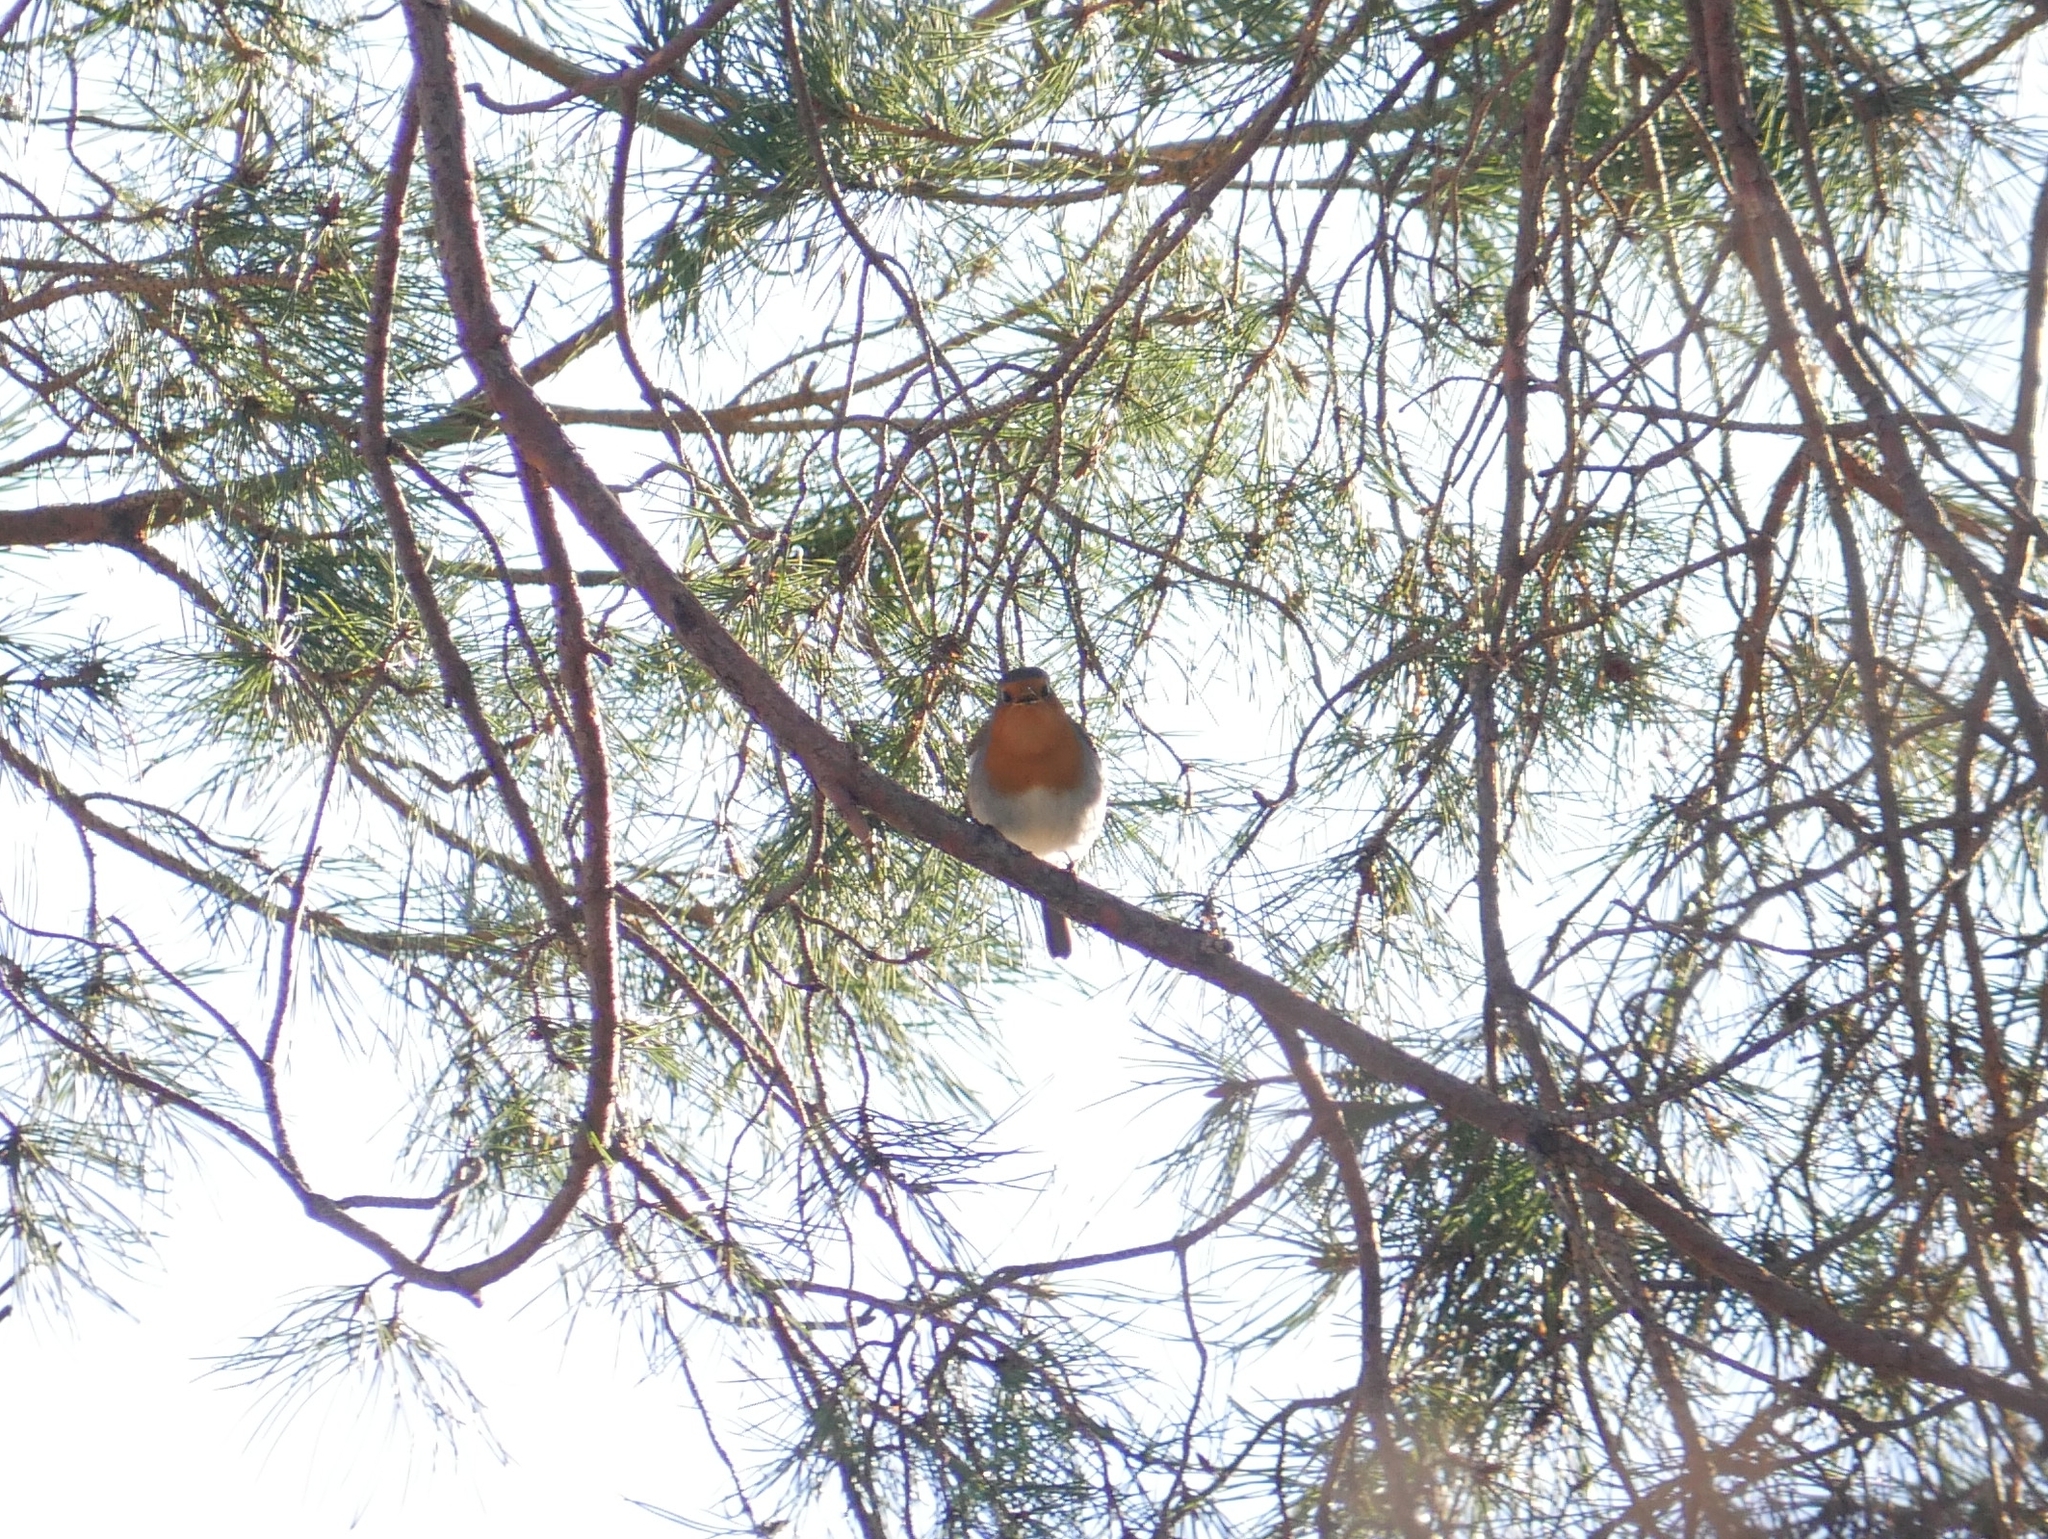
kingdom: Animalia
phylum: Chordata
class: Aves
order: Passeriformes
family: Muscicapidae
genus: Erithacus
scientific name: Erithacus rubecula
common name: European robin
